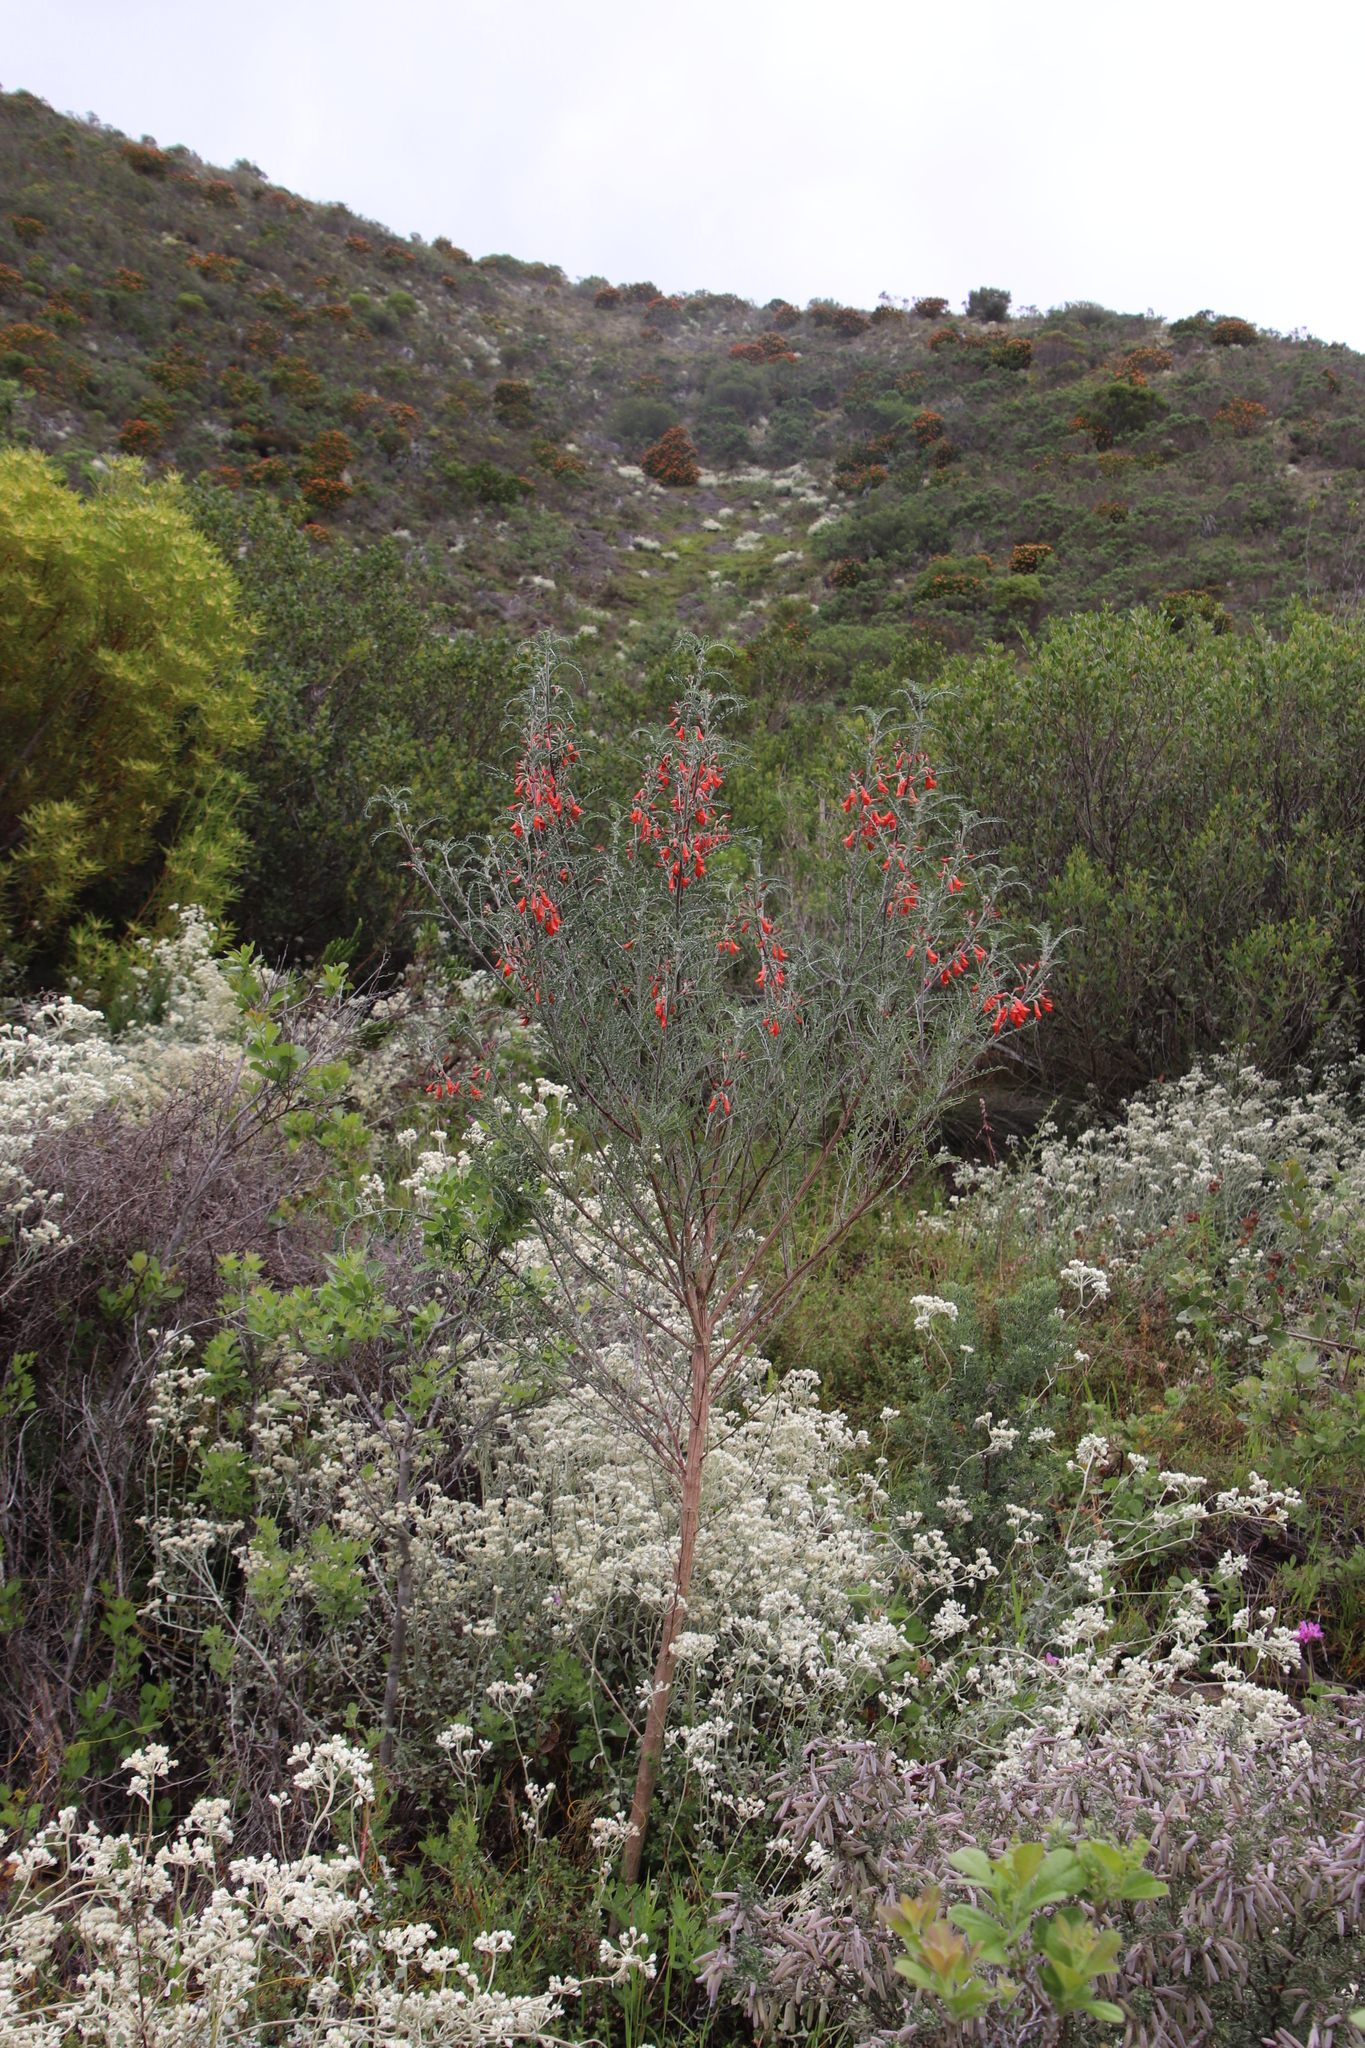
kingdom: Plantae
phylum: Tracheophyta
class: Magnoliopsida
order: Fabales
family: Fabaceae
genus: Lessertia
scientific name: Lessertia frutescens
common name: Balloon-pea
